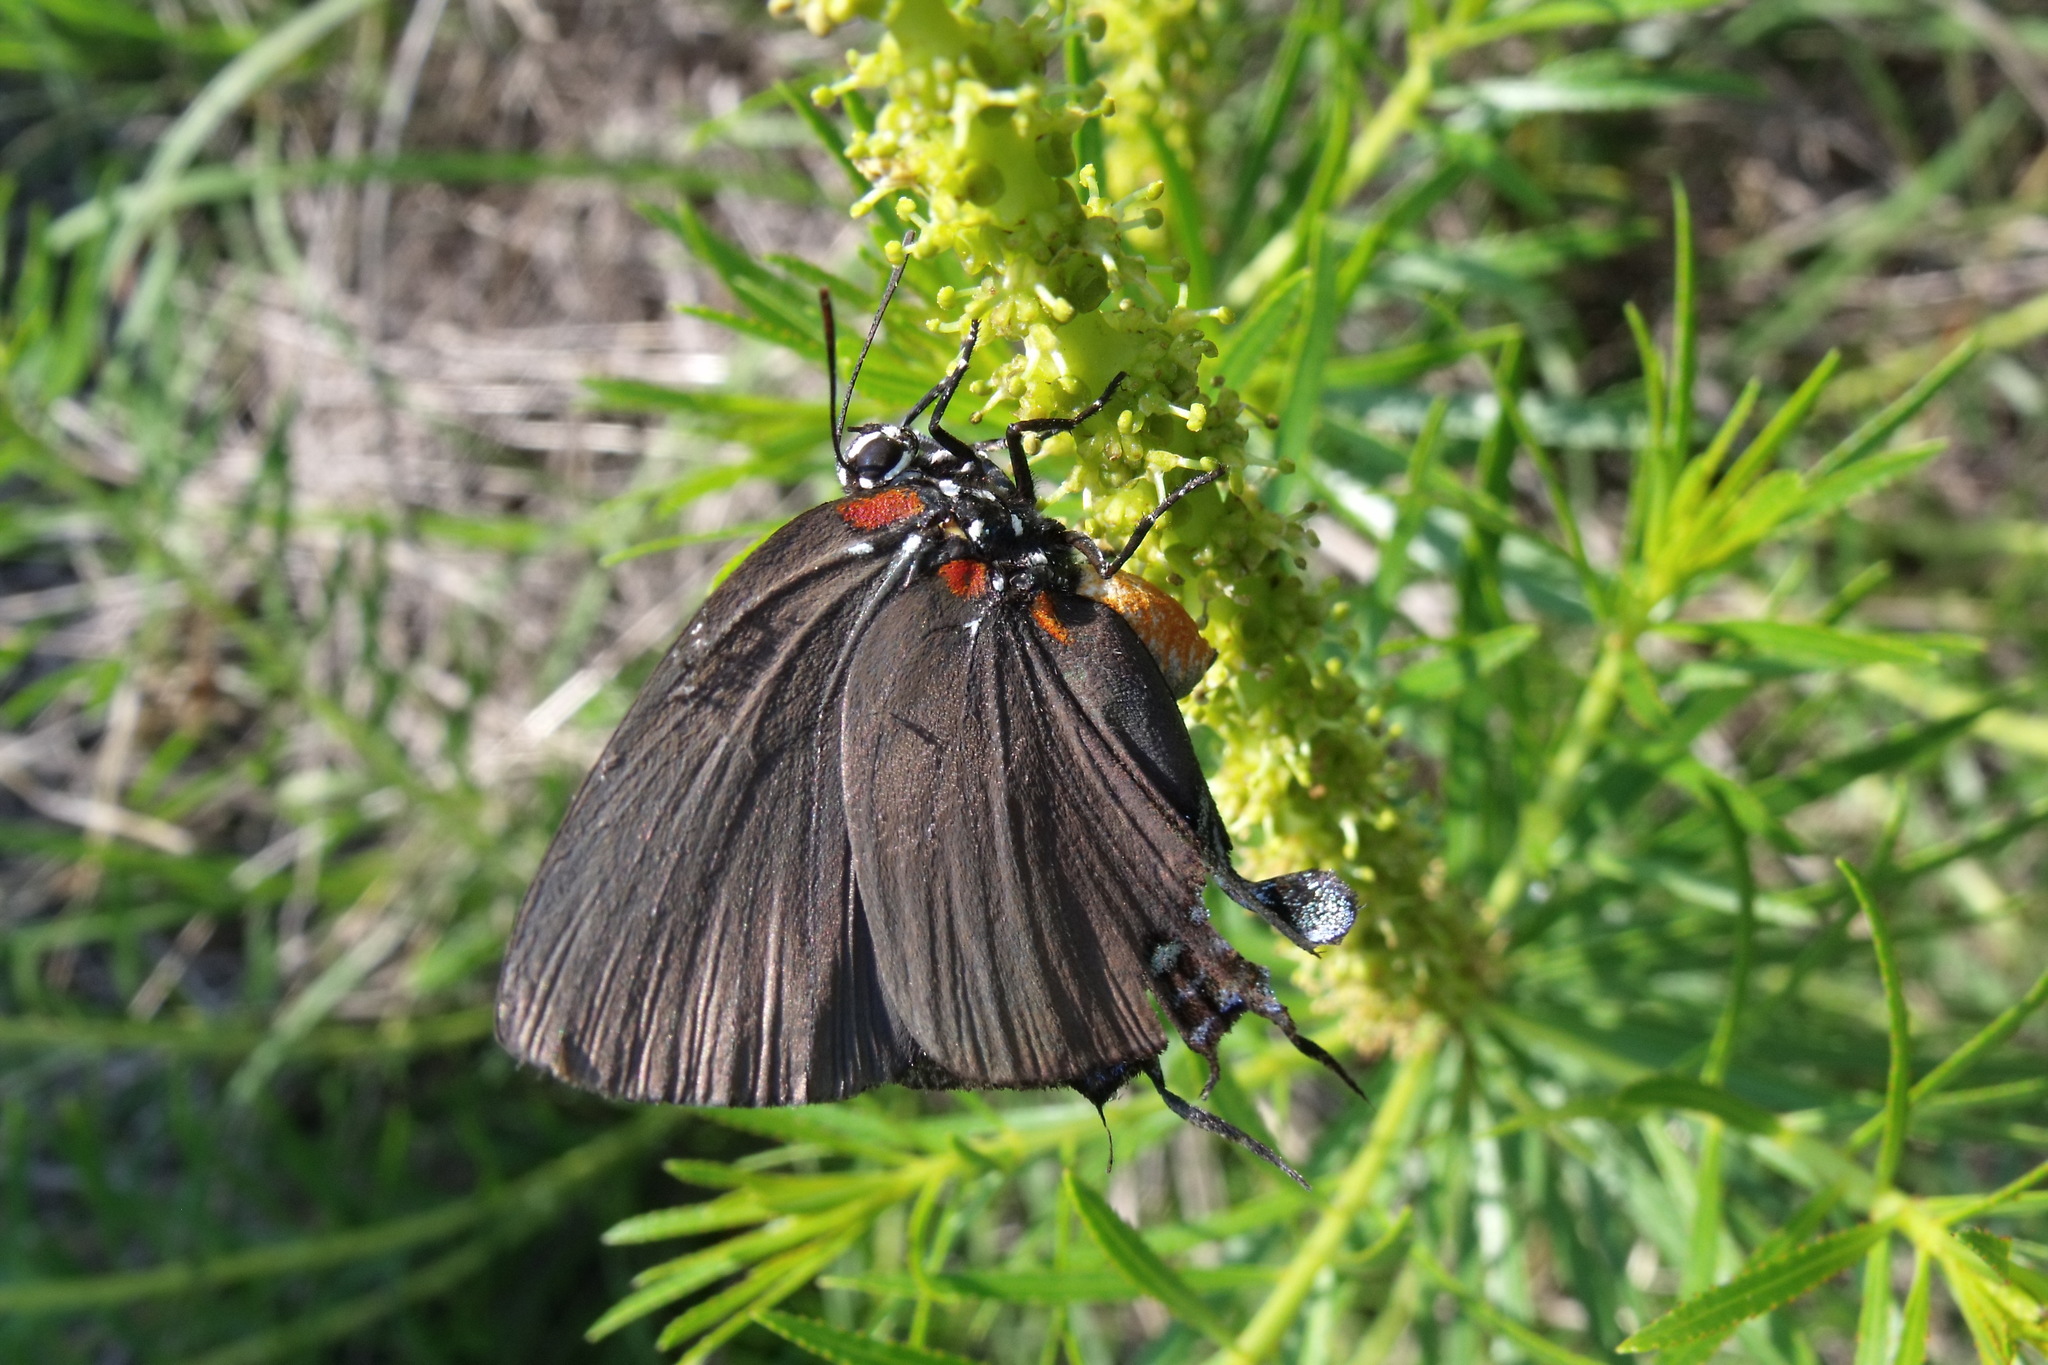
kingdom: Animalia
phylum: Arthropoda
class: Insecta
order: Lepidoptera
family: Lycaenidae
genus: Atlides
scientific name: Atlides halesus
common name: Great purple hairstreak
